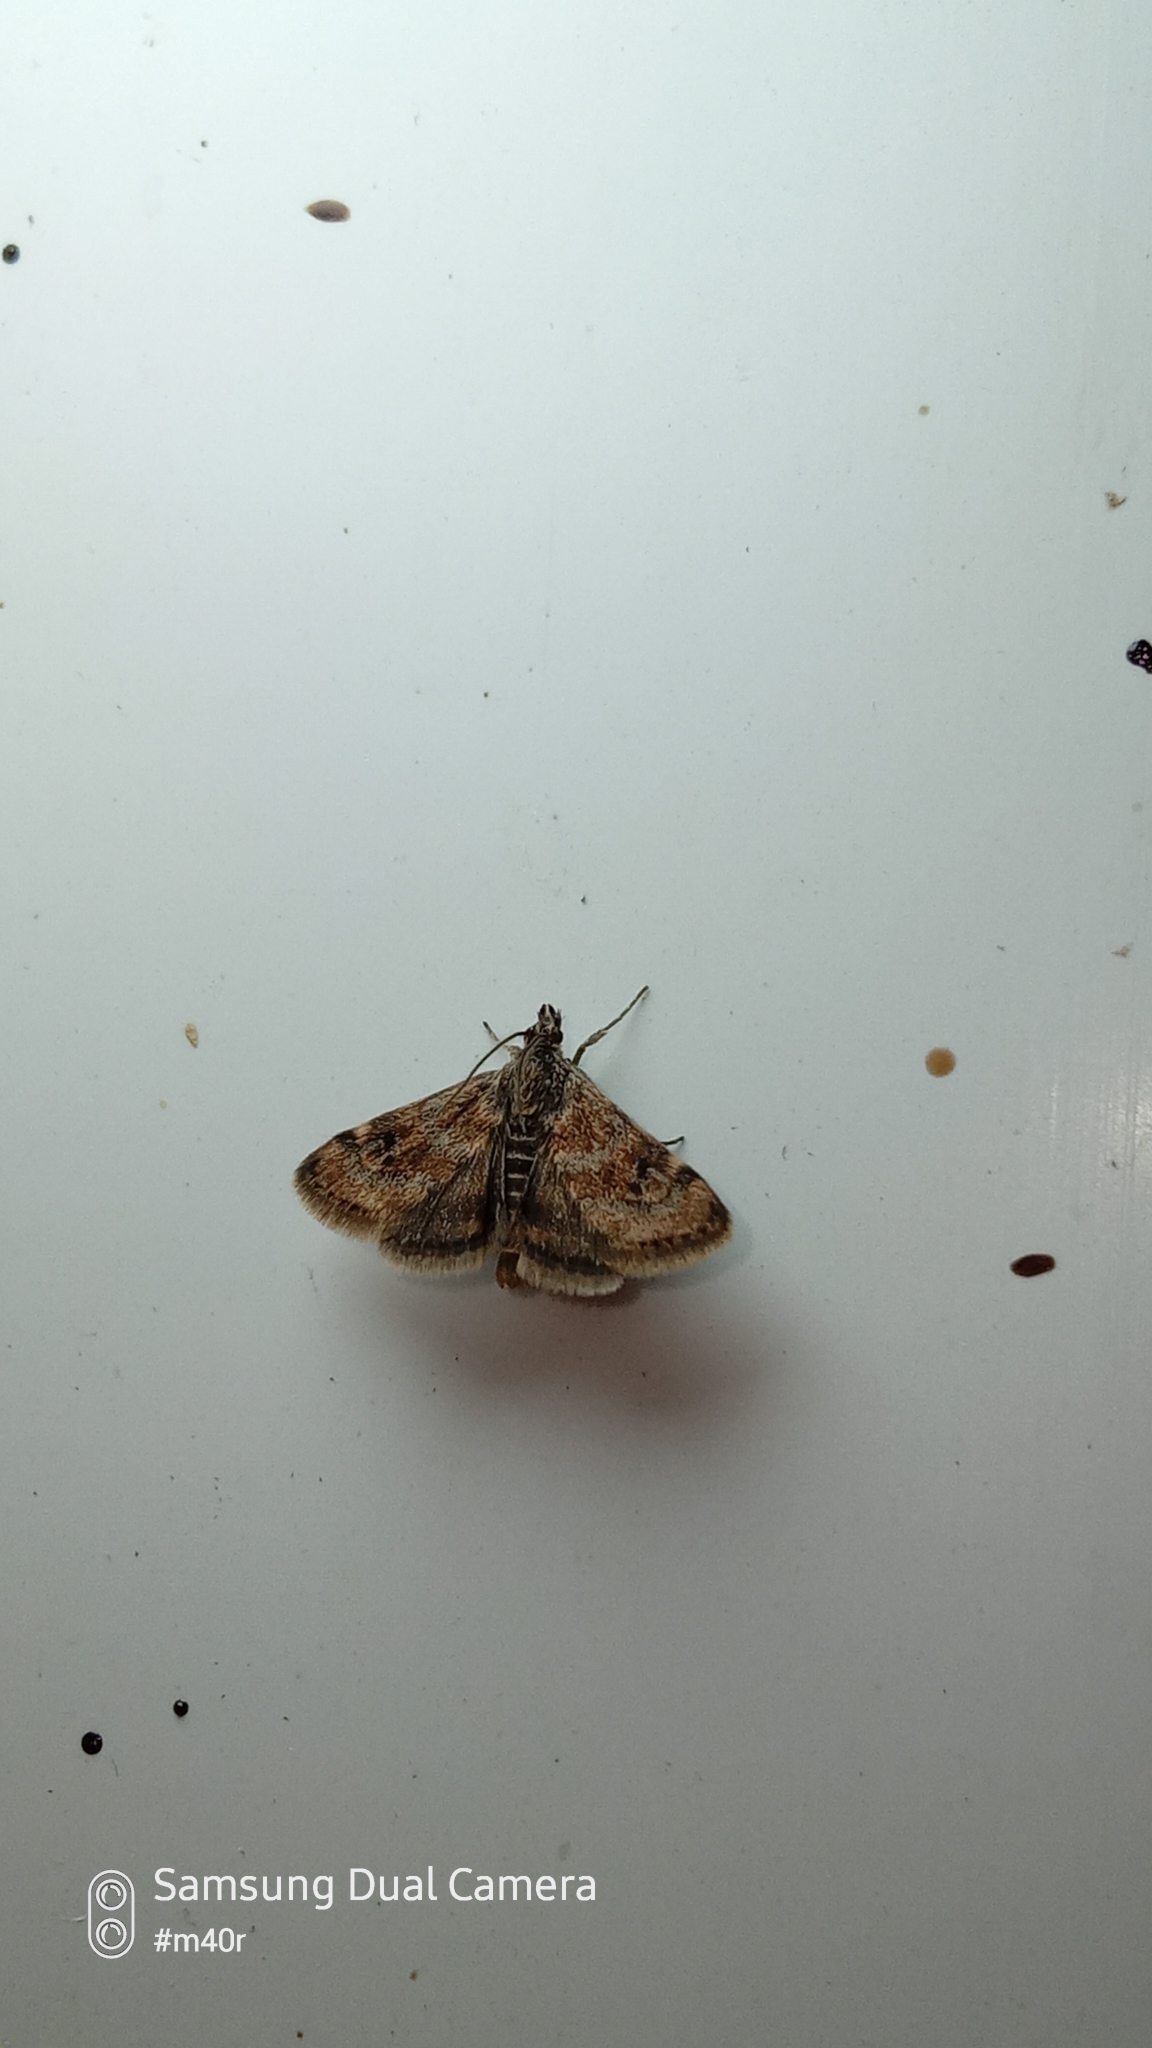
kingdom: Animalia
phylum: Arthropoda
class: Insecta
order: Lepidoptera
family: Crambidae
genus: Noctuelia
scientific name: Noctuelia Aporodes floralis
